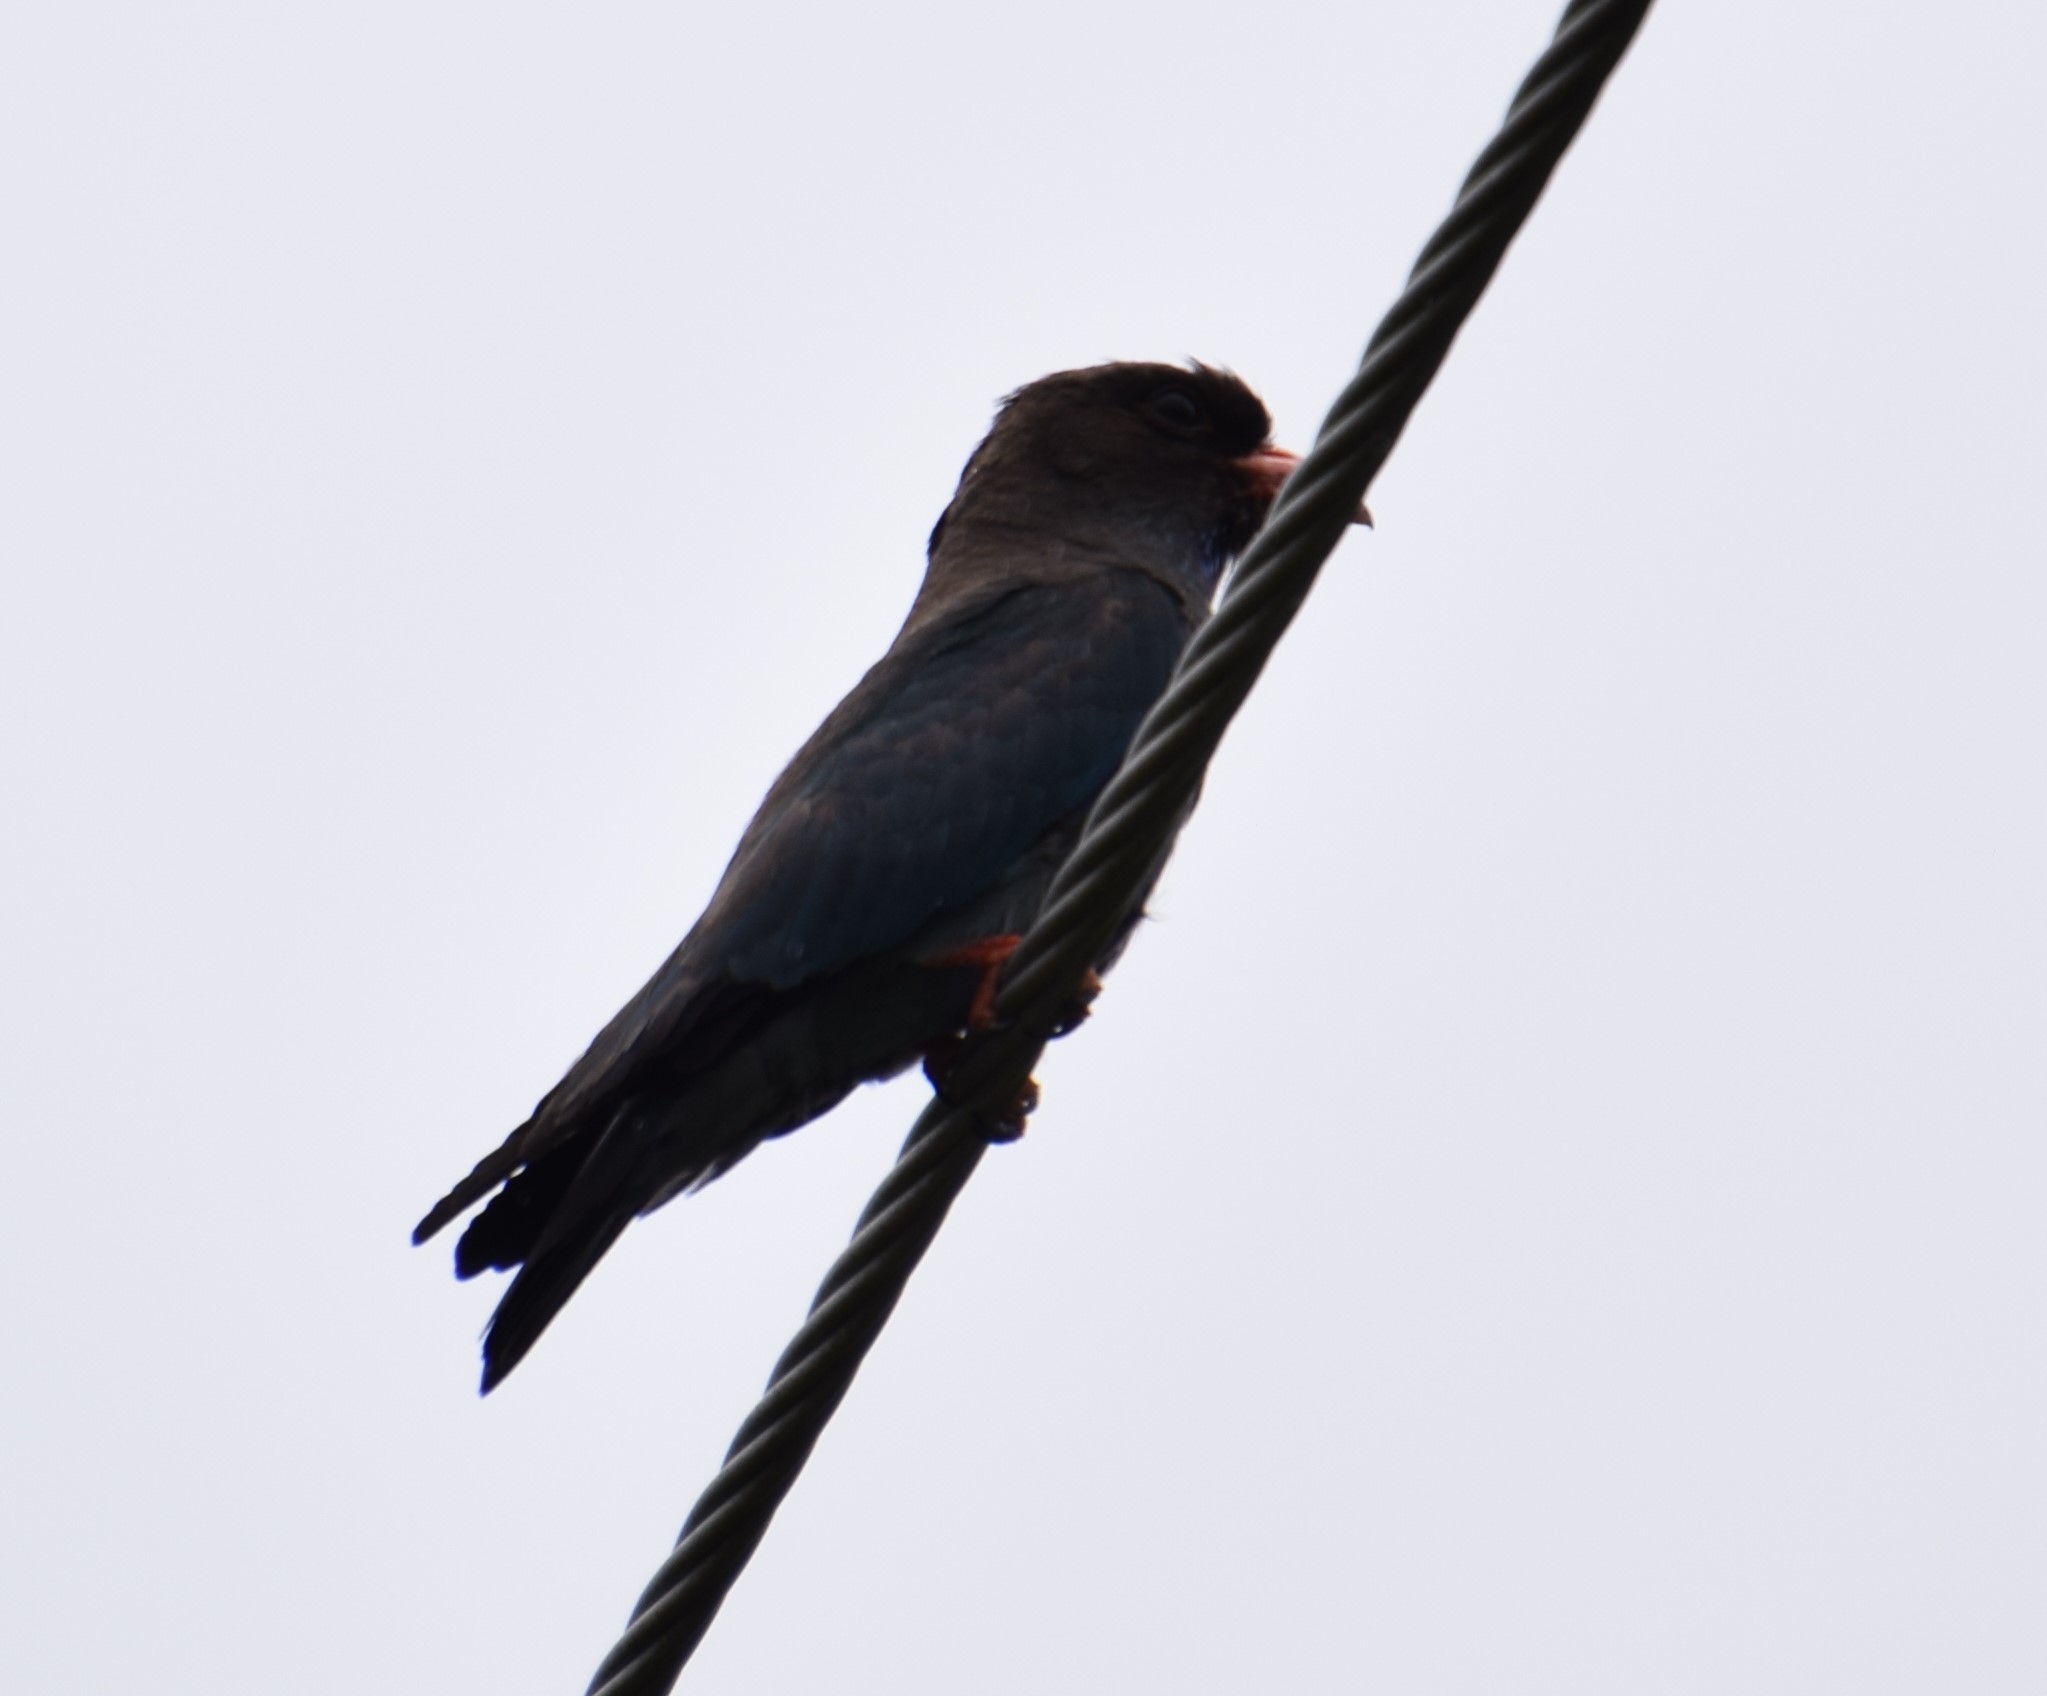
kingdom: Animalia
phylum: Chordata
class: Aves
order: Coraciiformes
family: Coraciidae
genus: Eurystomus
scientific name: Eurystomus orientalis
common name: Oriental dollarbird
